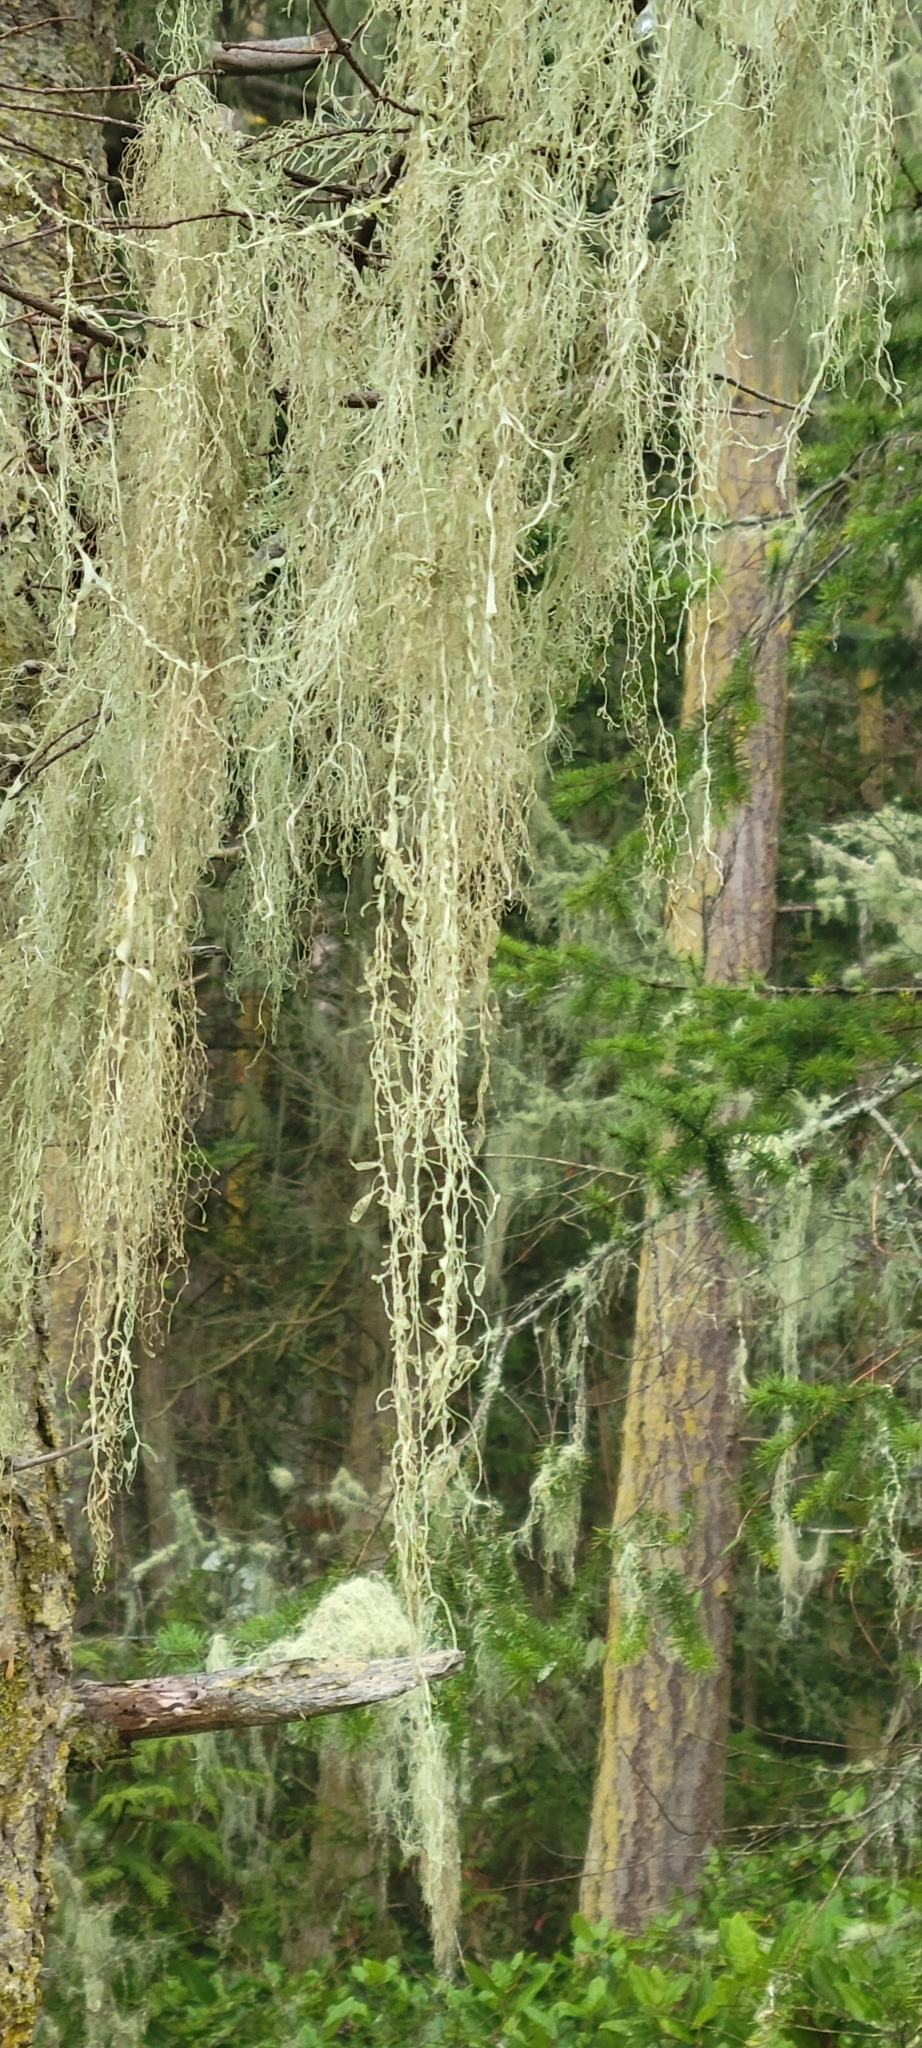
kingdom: Fungi
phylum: Ascomycota
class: Lecanoromycetes
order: Lecanorales
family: Ramalinaceae
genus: Ramalina
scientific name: Ramalina menziesii
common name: Lace lichen
